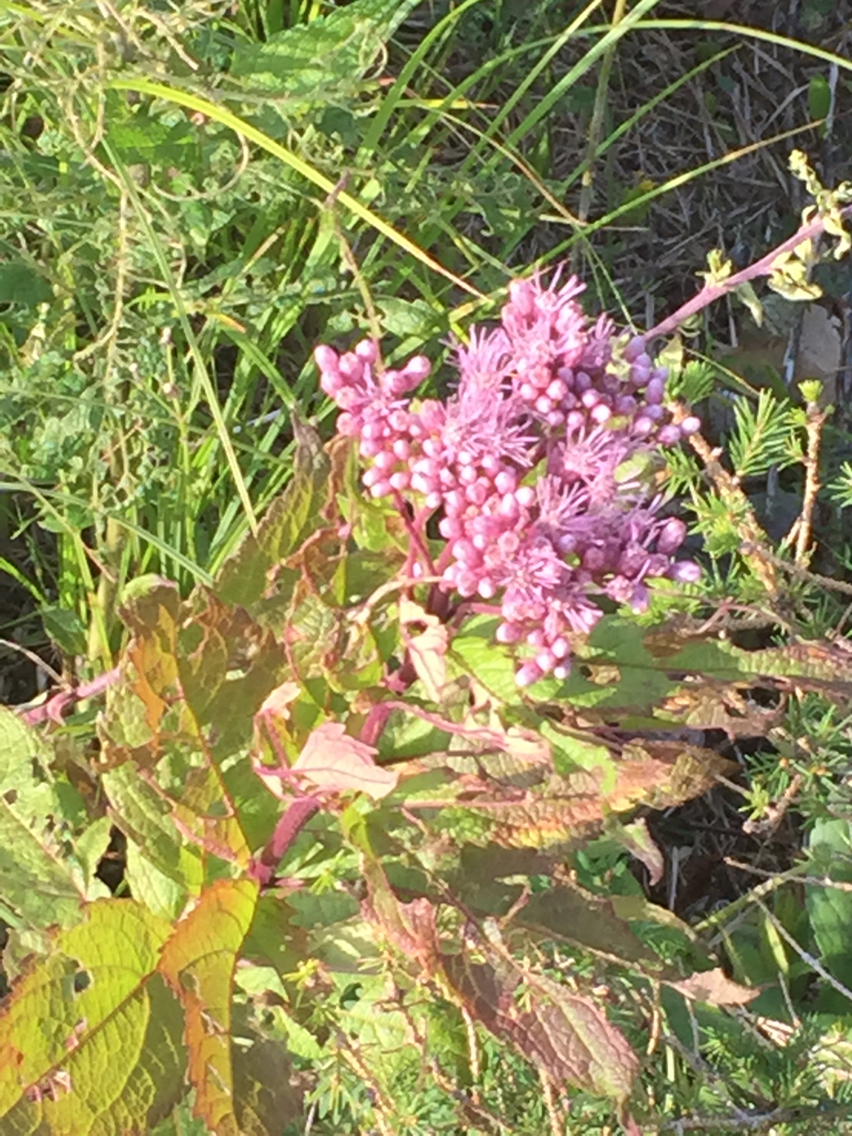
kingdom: Plantae
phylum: Tracheophyta
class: Magnoliopsida
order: Asterales
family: Asteraceae
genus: Eutrochium
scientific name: Eutrochium maculatum
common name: Spotted joe pye weed
